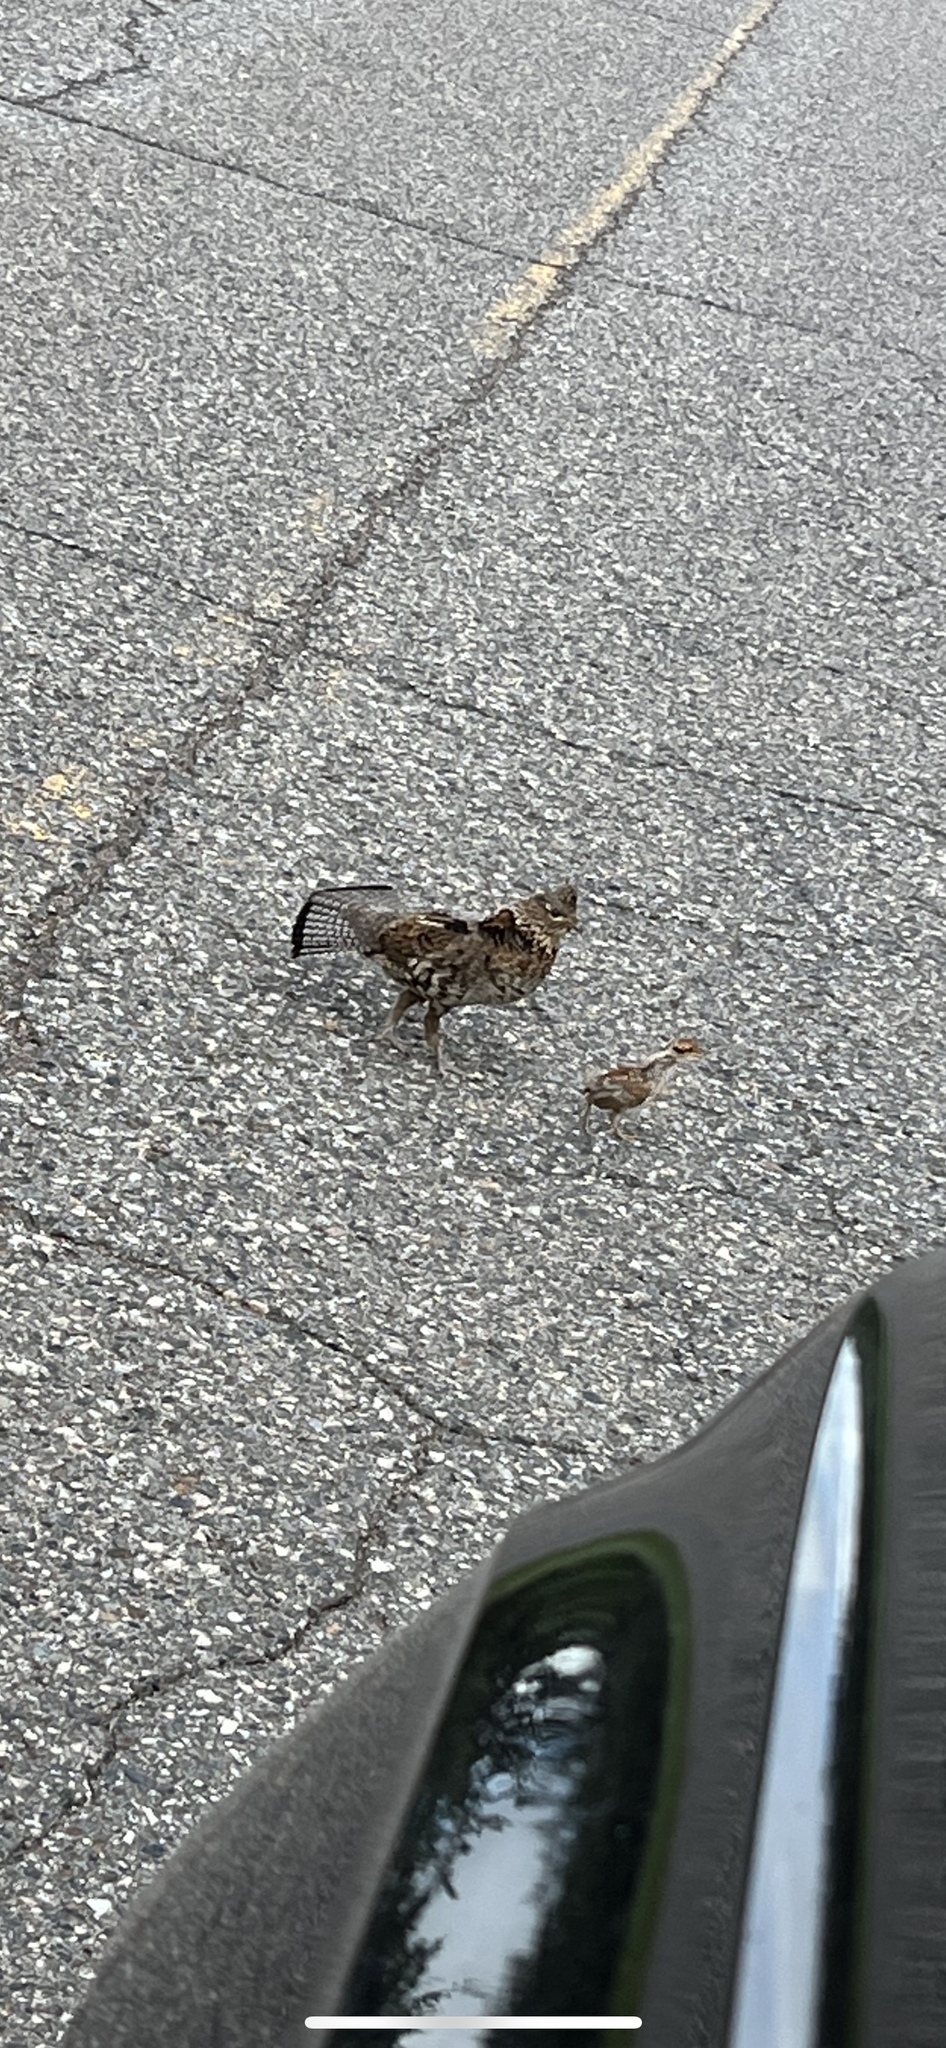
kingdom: Animalia
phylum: Chordata
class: Aves
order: Galliformes
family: Phasianidae
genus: Bonasa
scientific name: Bonasa umbellus
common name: Ruffed grouse
